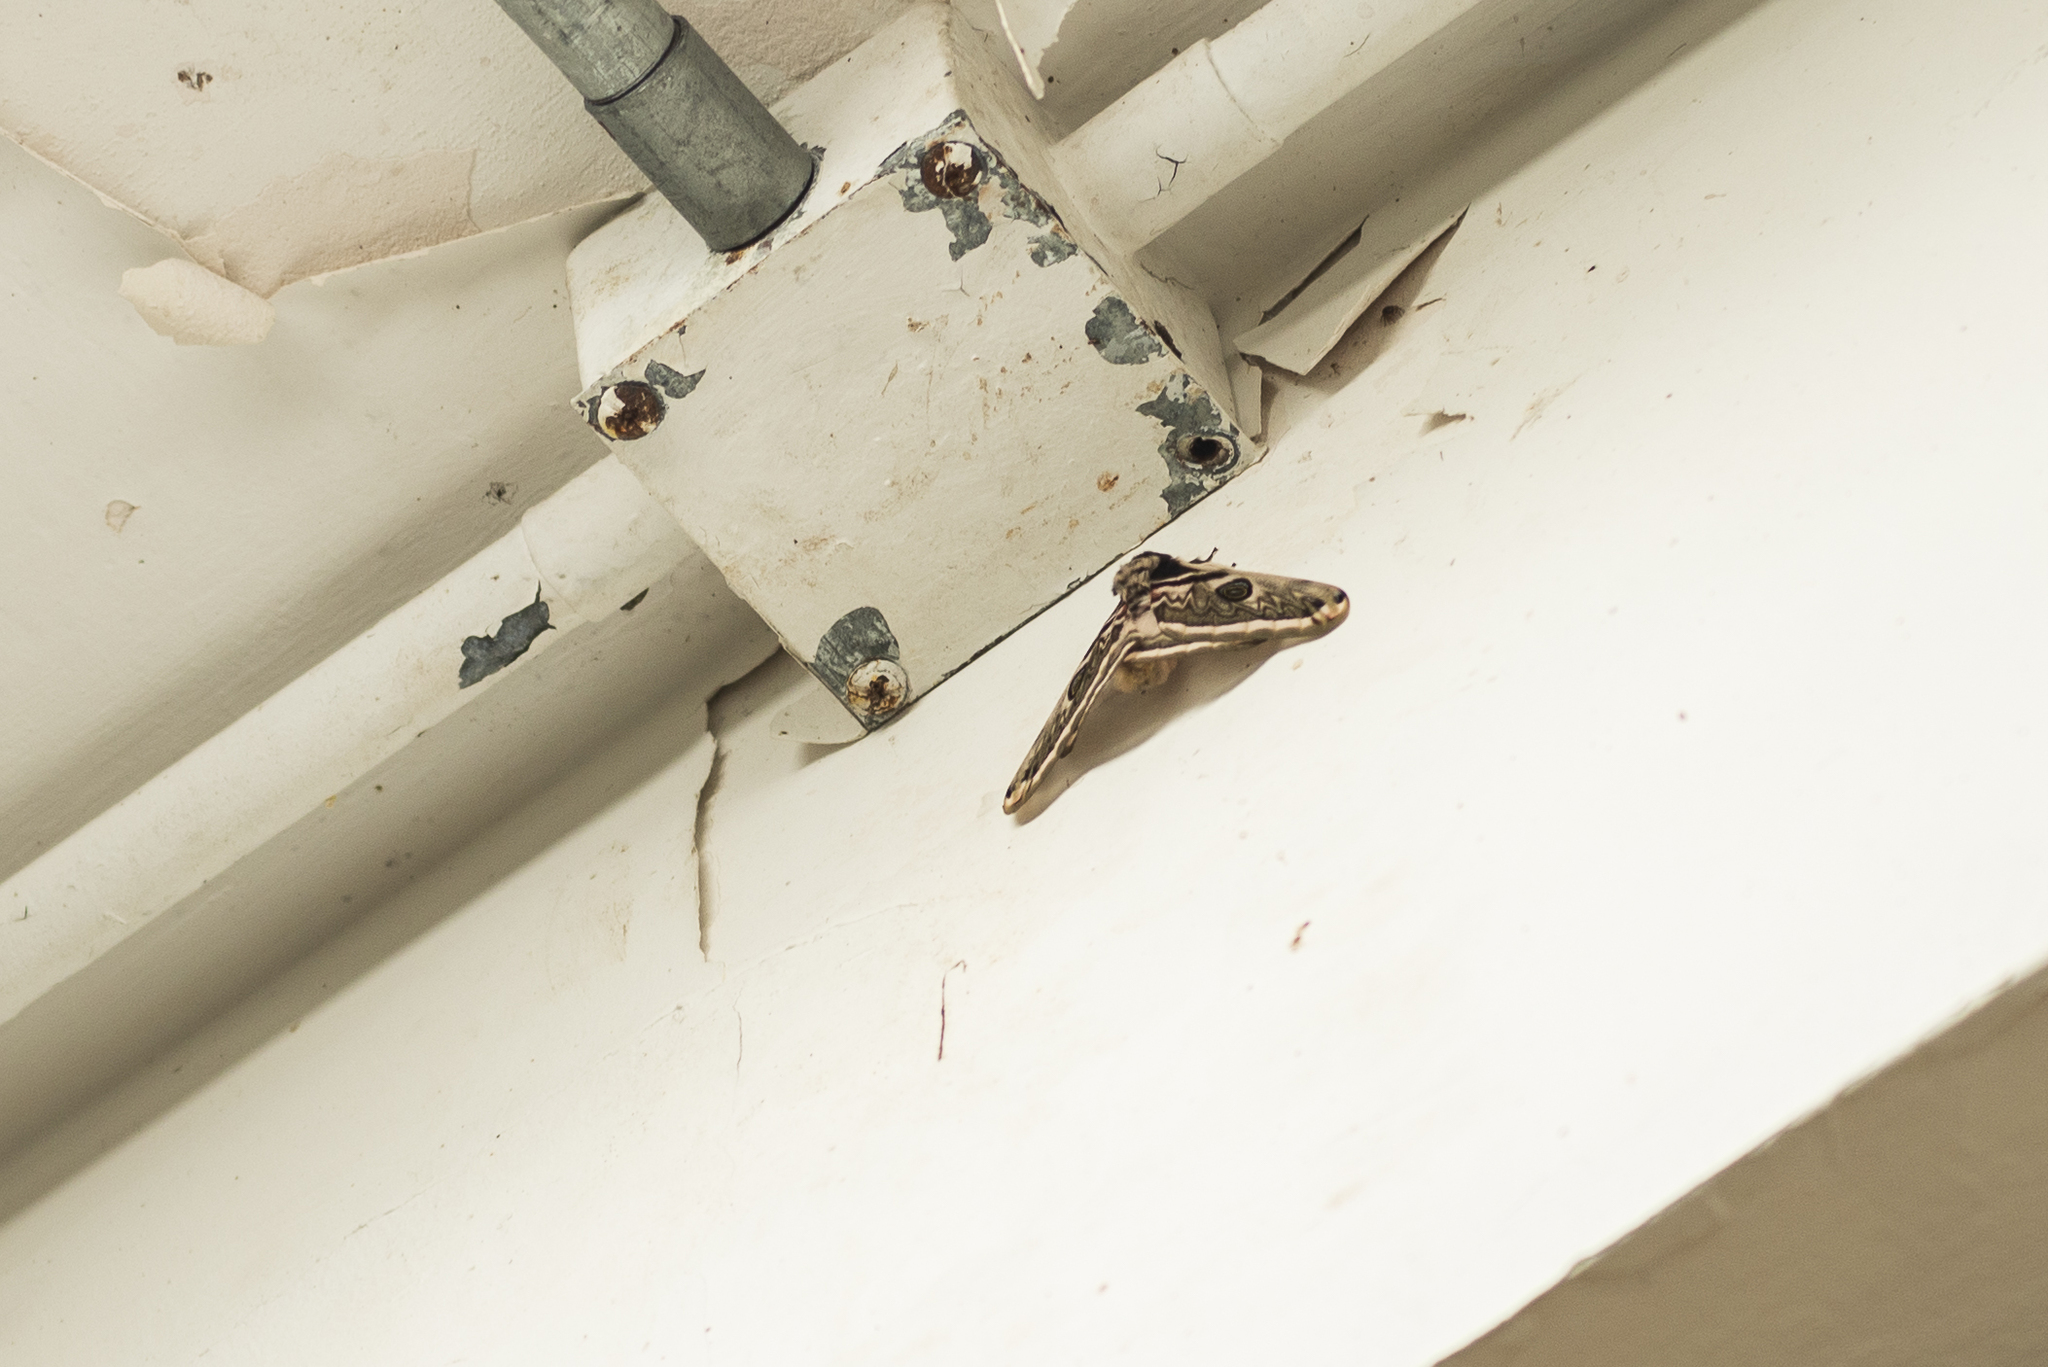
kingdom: Animalia
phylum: Arthropoda
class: Insecta
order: Lepidoptera
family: Saturniidae
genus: Saturnia
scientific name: Saturnia pyretorum
